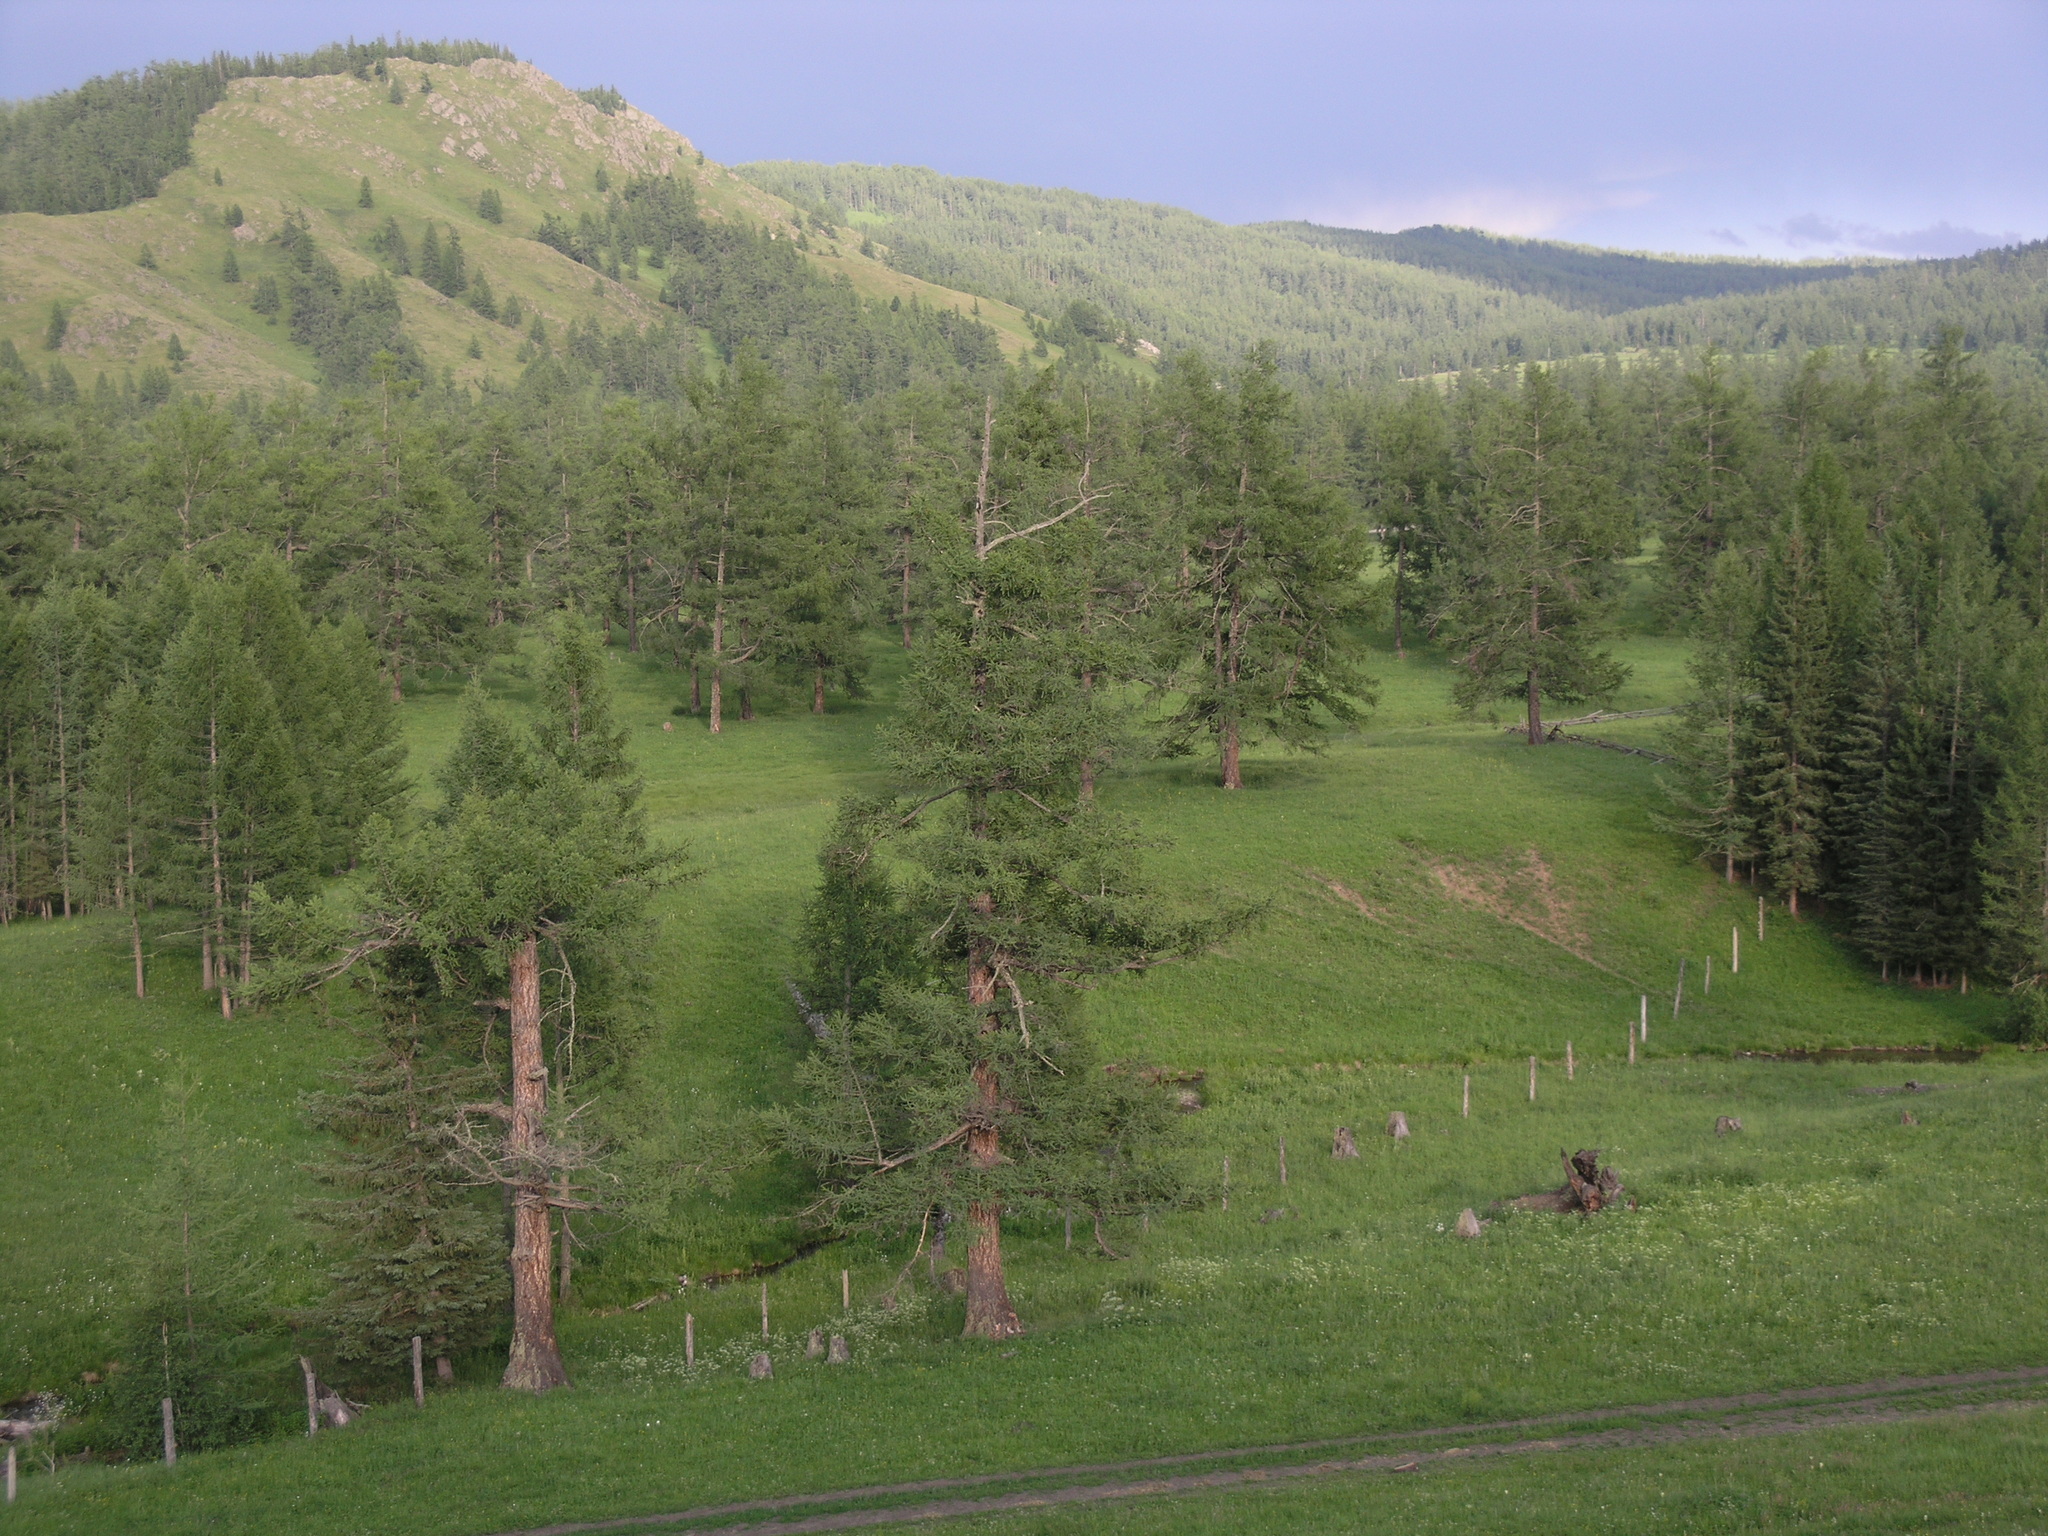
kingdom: Plantae
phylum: Tracheophyta
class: Pinopsida
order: Pinales
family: Pinaceae
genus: Larix
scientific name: Larix sibirica
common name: Siberian larch
